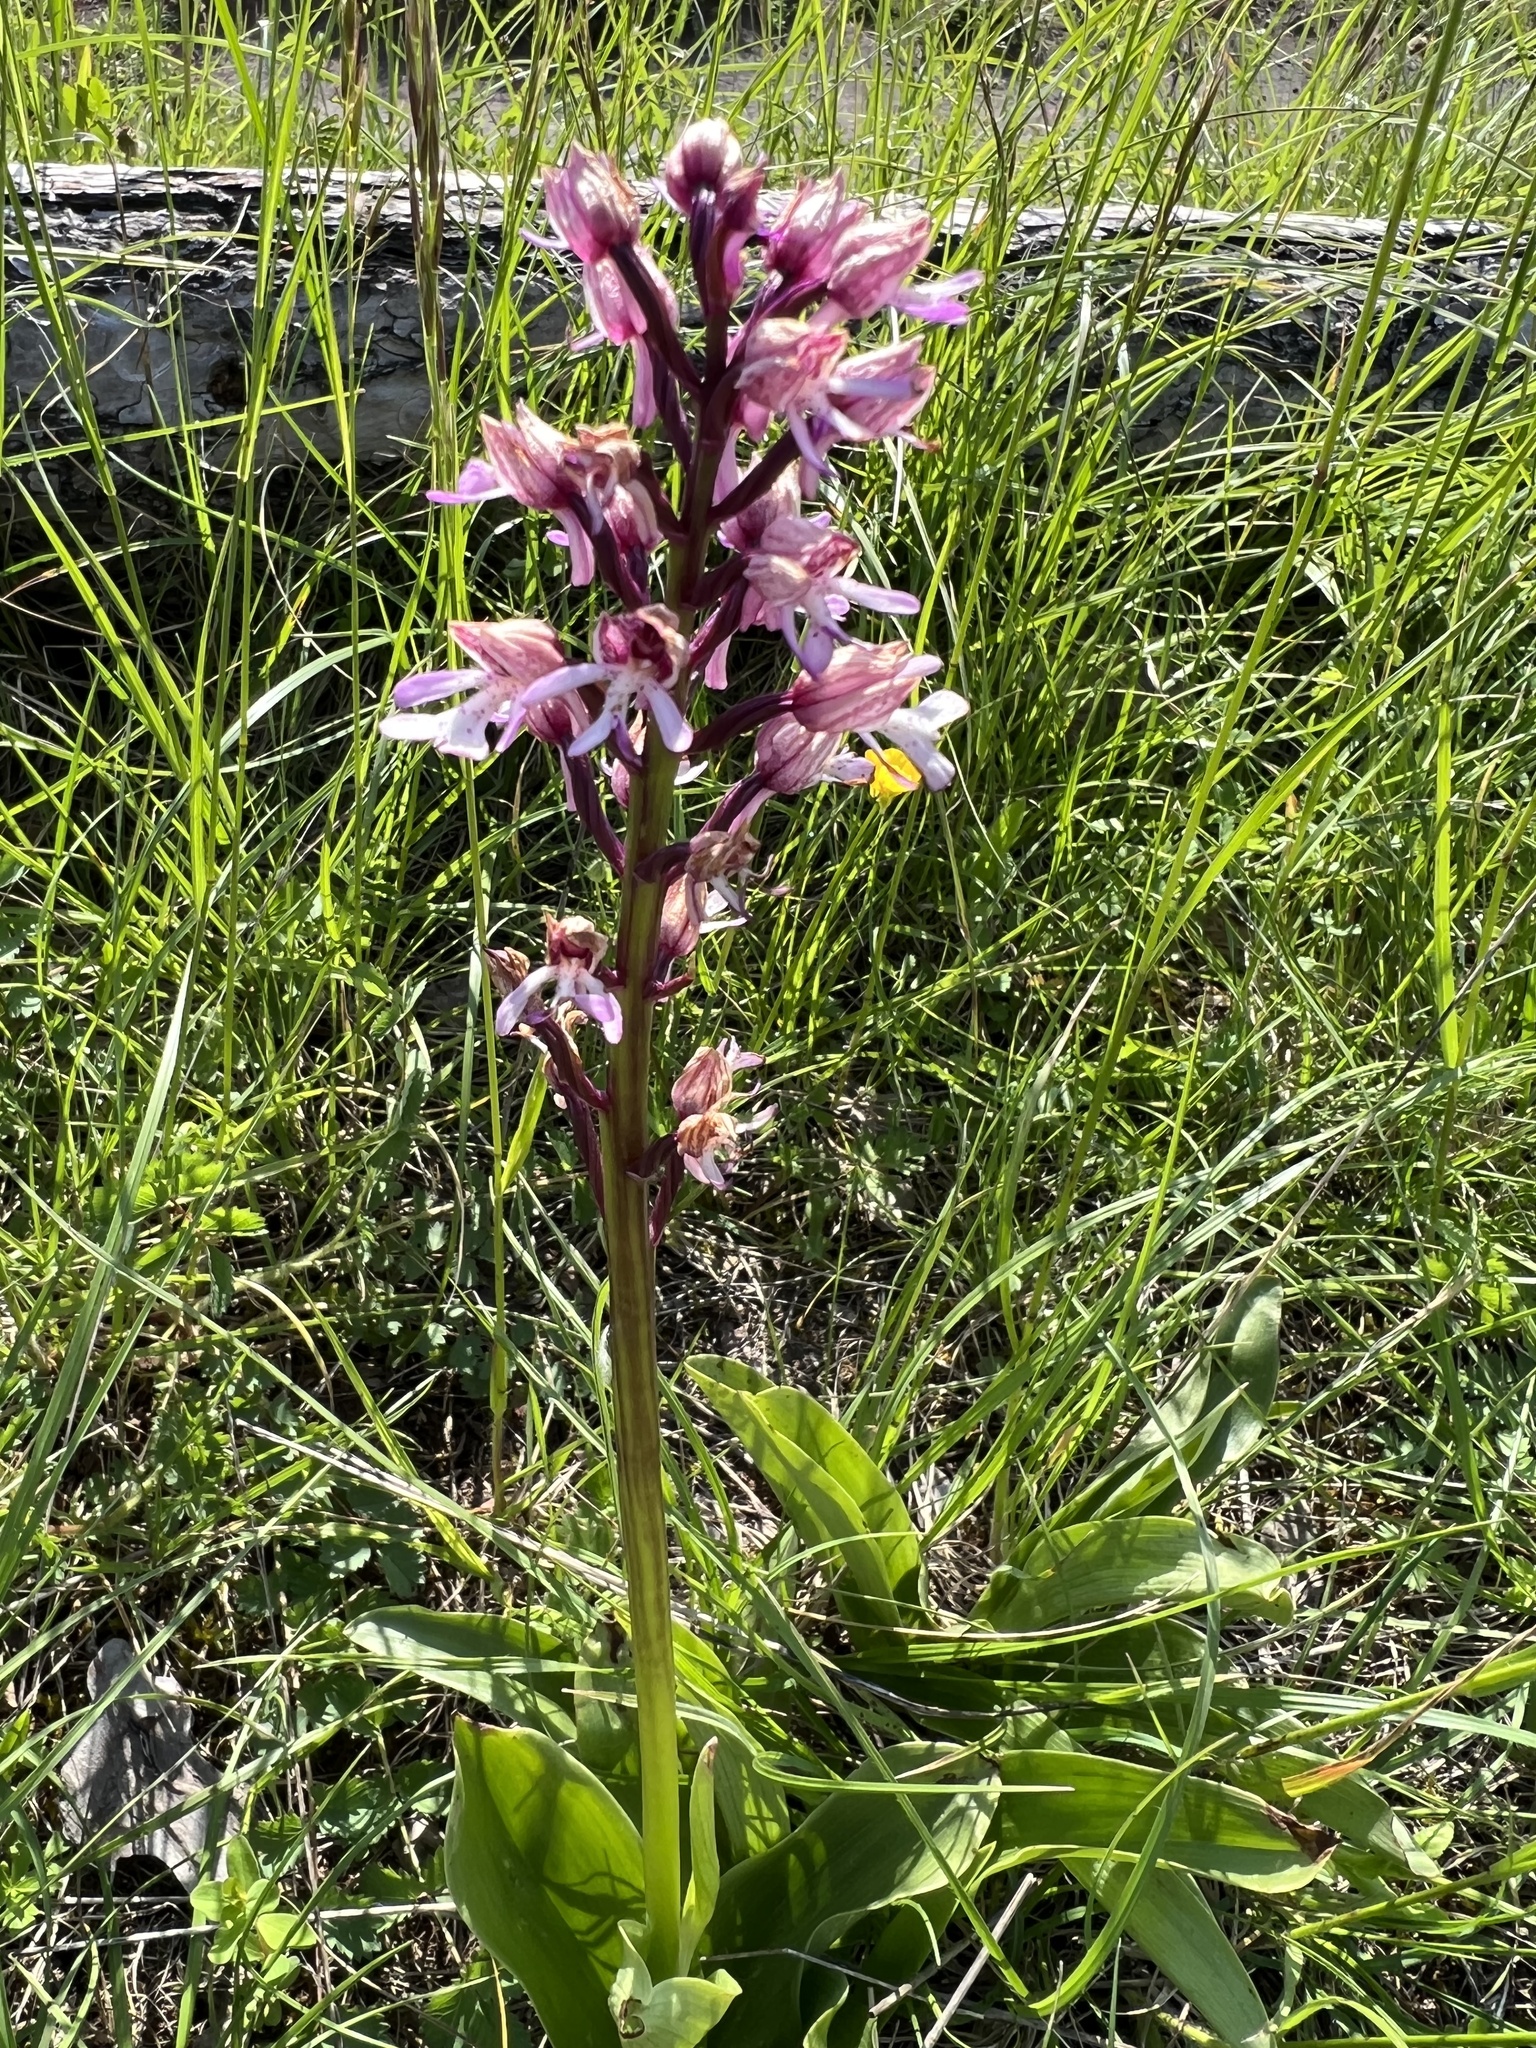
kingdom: Plantae
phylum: Tracheophyta
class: Liliopsida
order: Asparagales
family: Orchidaceae
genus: Orchis
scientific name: Orchis militaris
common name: Military orchid
